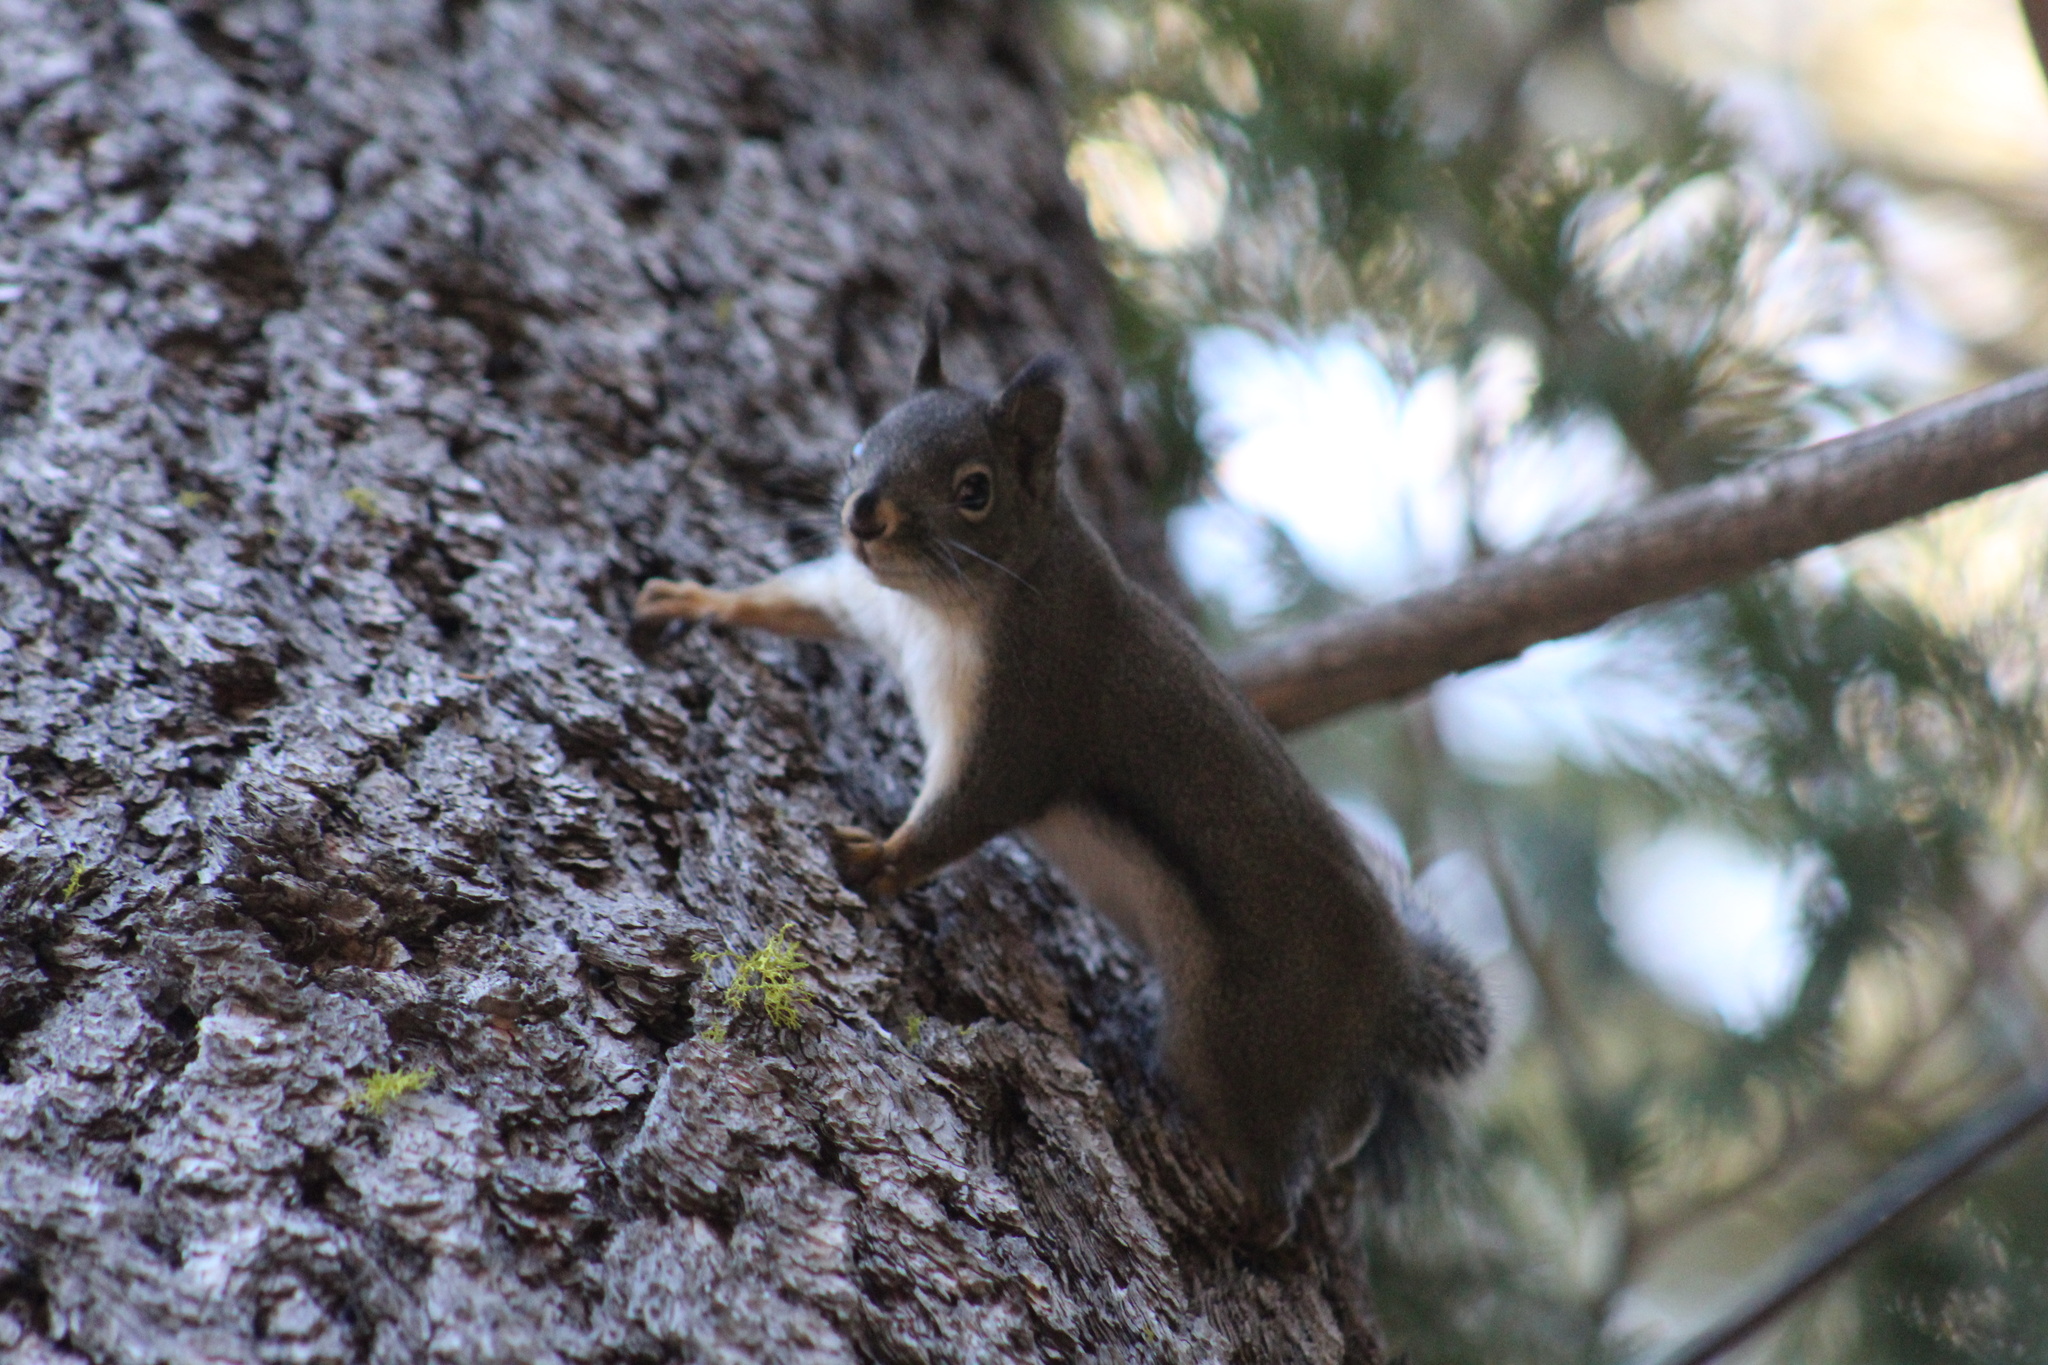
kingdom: Animalia
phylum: Chordata
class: Mammalia
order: Rodentia
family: Sciuridae
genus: Tamiasciurus
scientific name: Tamiasciurus douglasii
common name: Douglas's squirrel
